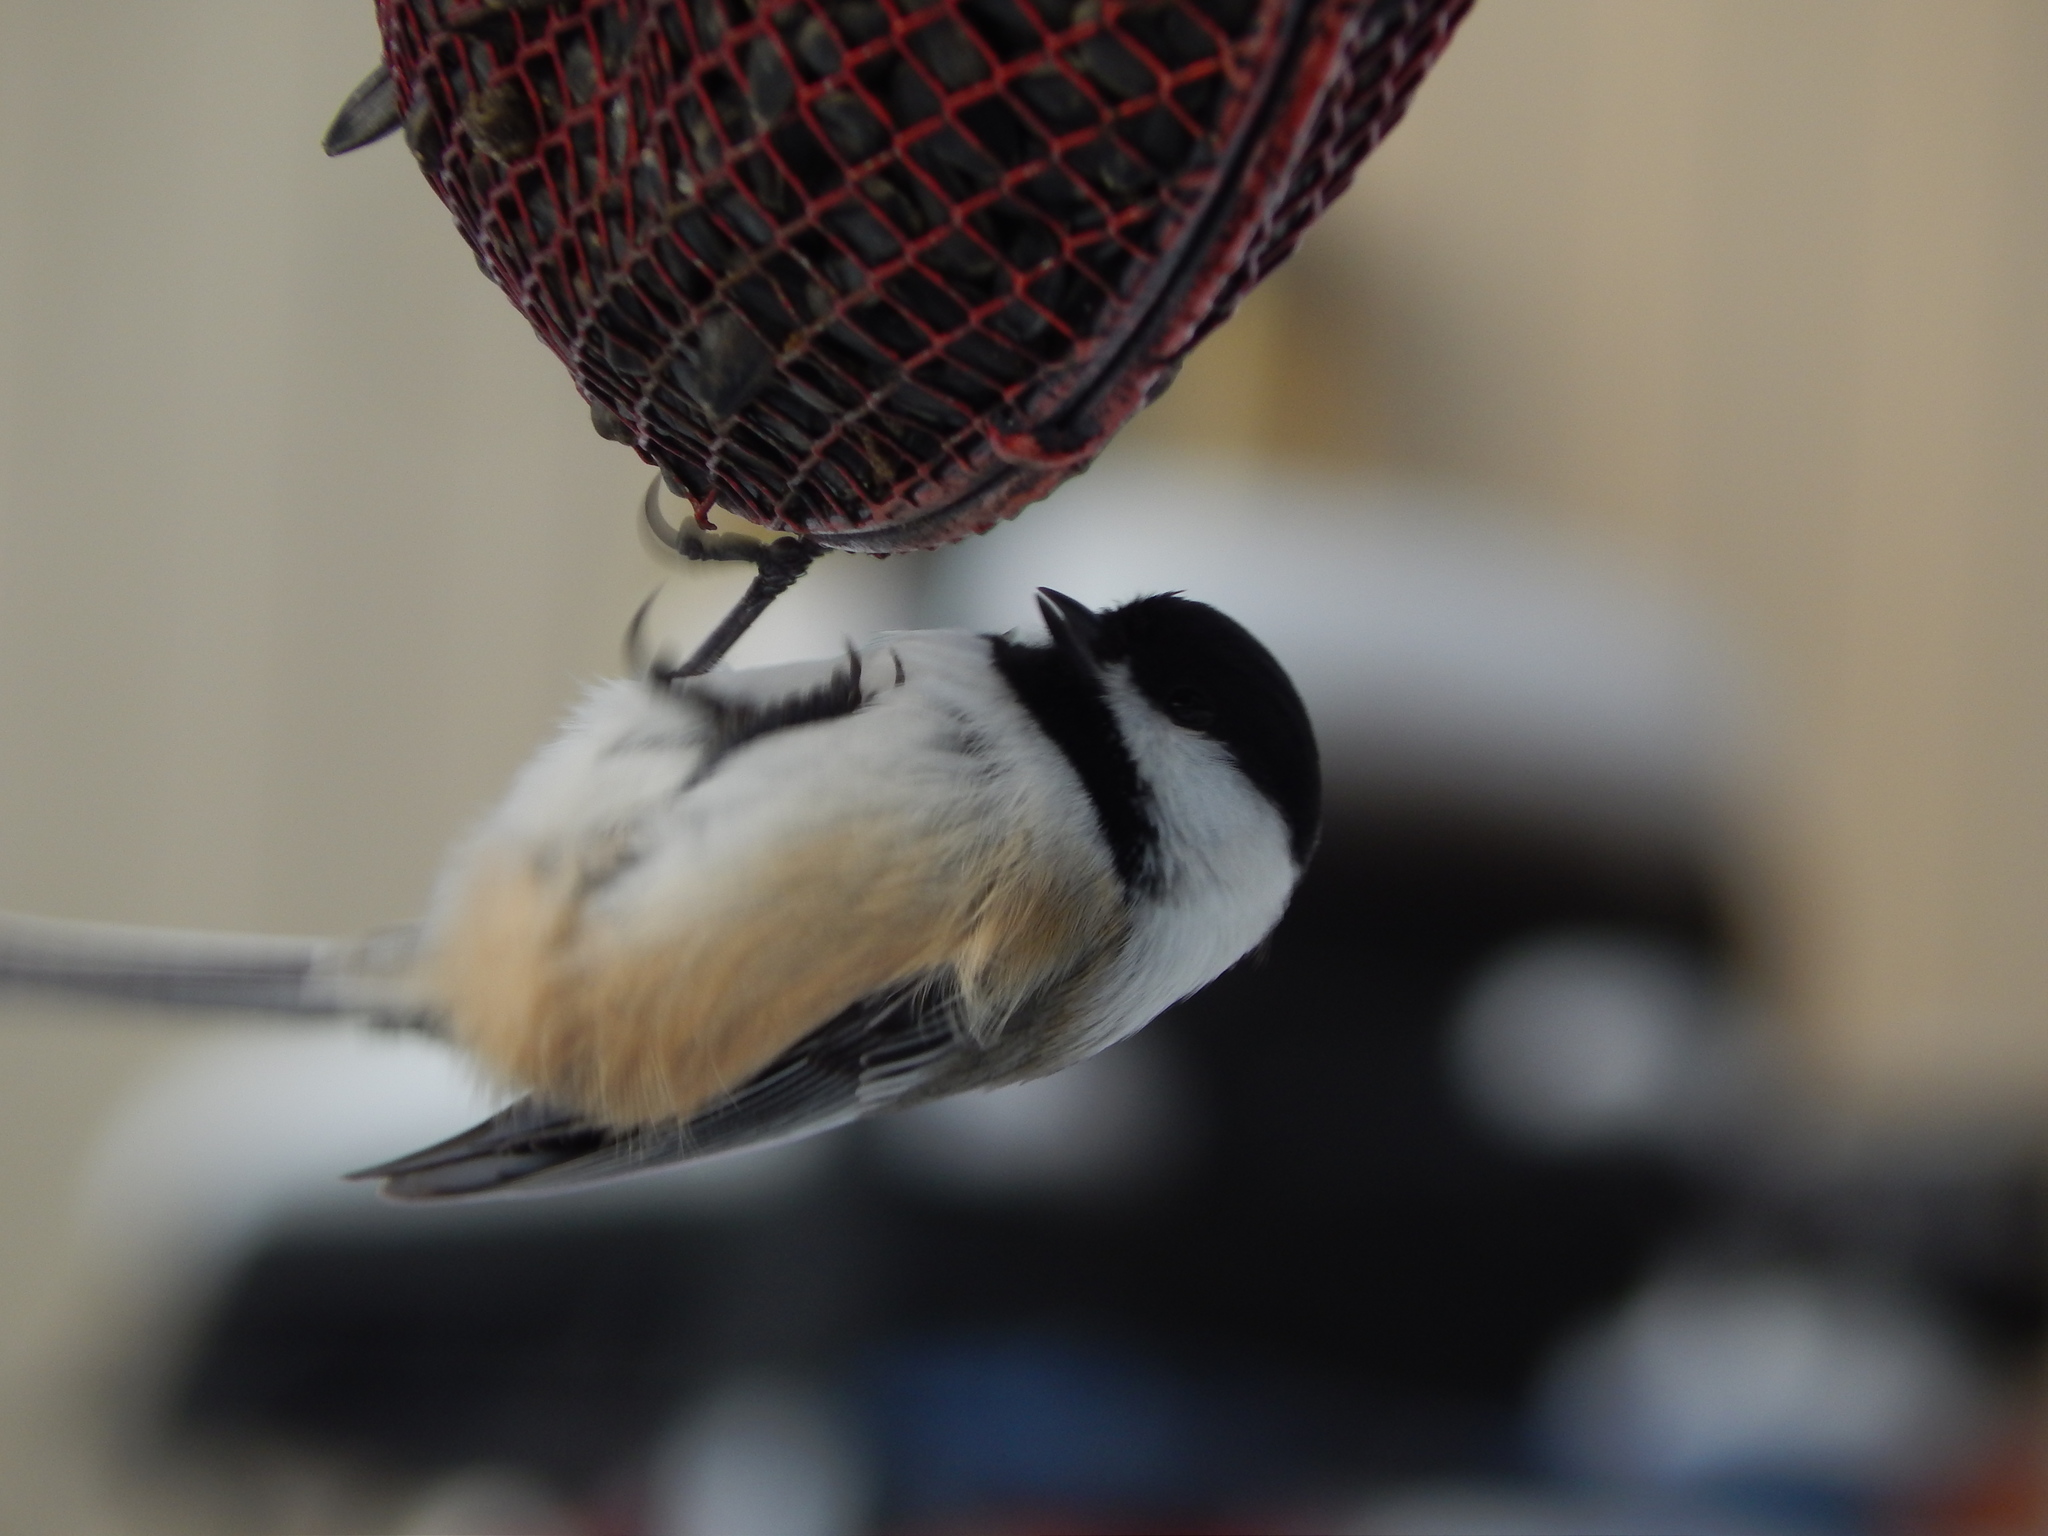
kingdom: Animalia
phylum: Chordata
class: Aves
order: Passeriformes
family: Paridae
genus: Poecile
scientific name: Poecile atricapillus
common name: Black-capped chickadee
